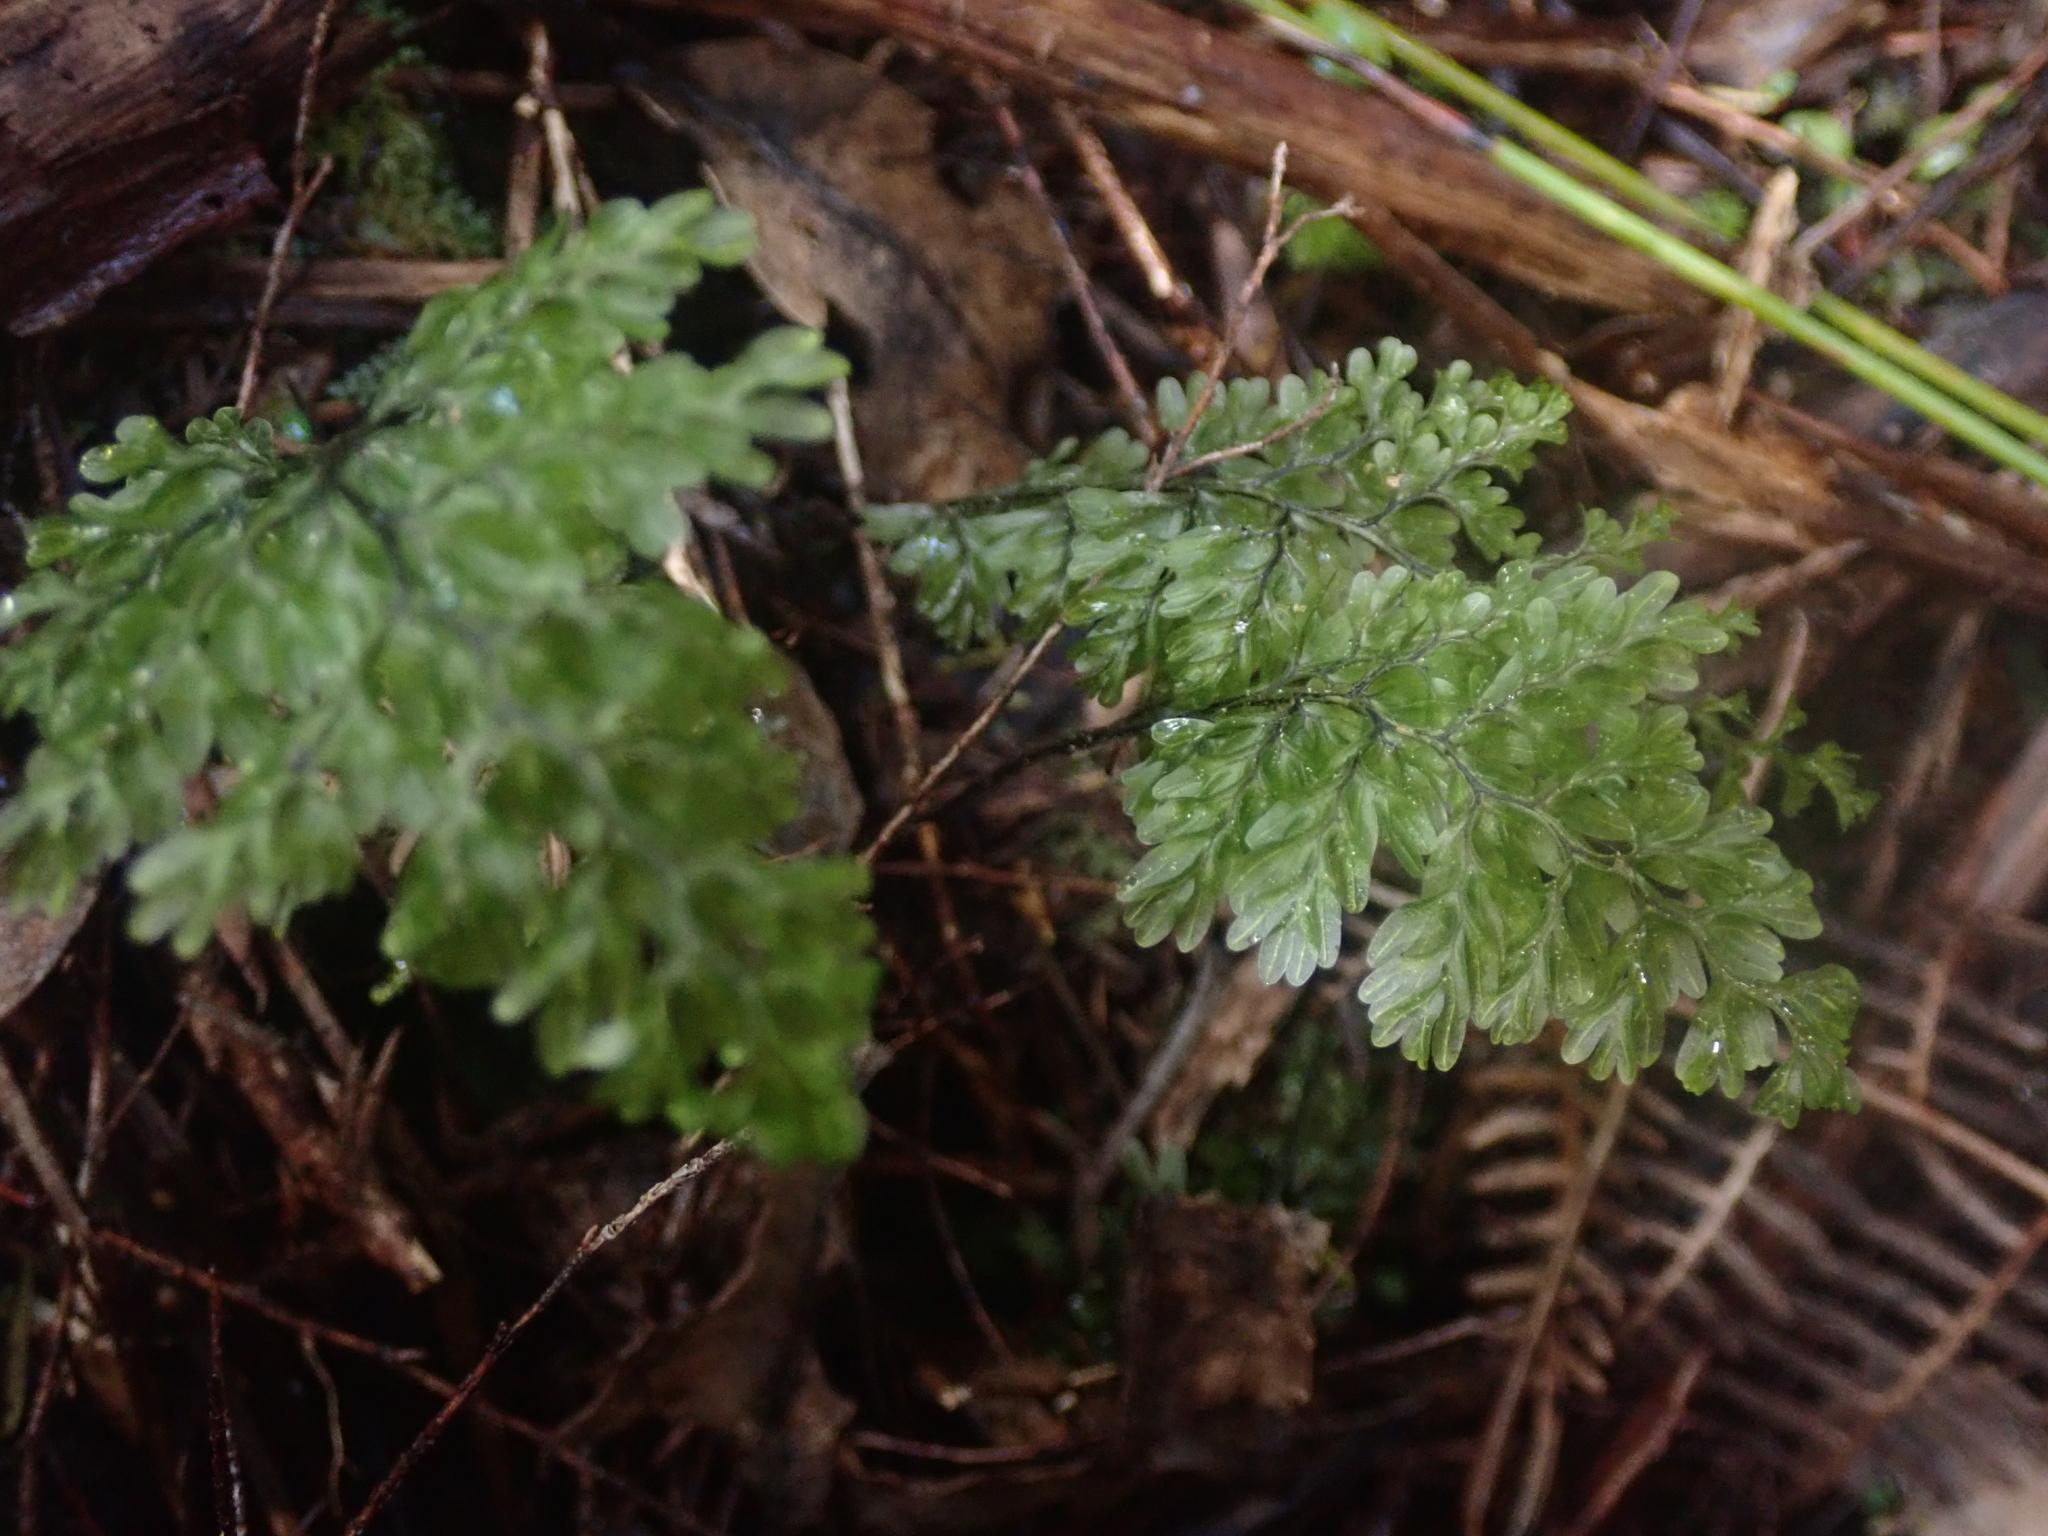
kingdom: Plantae
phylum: Tracheophyta
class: Polypodiopsida
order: Hymenophyllales
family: Hymenophyllaceae
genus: Hymenophyllum
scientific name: Hymenophyllum sanguinolentum
